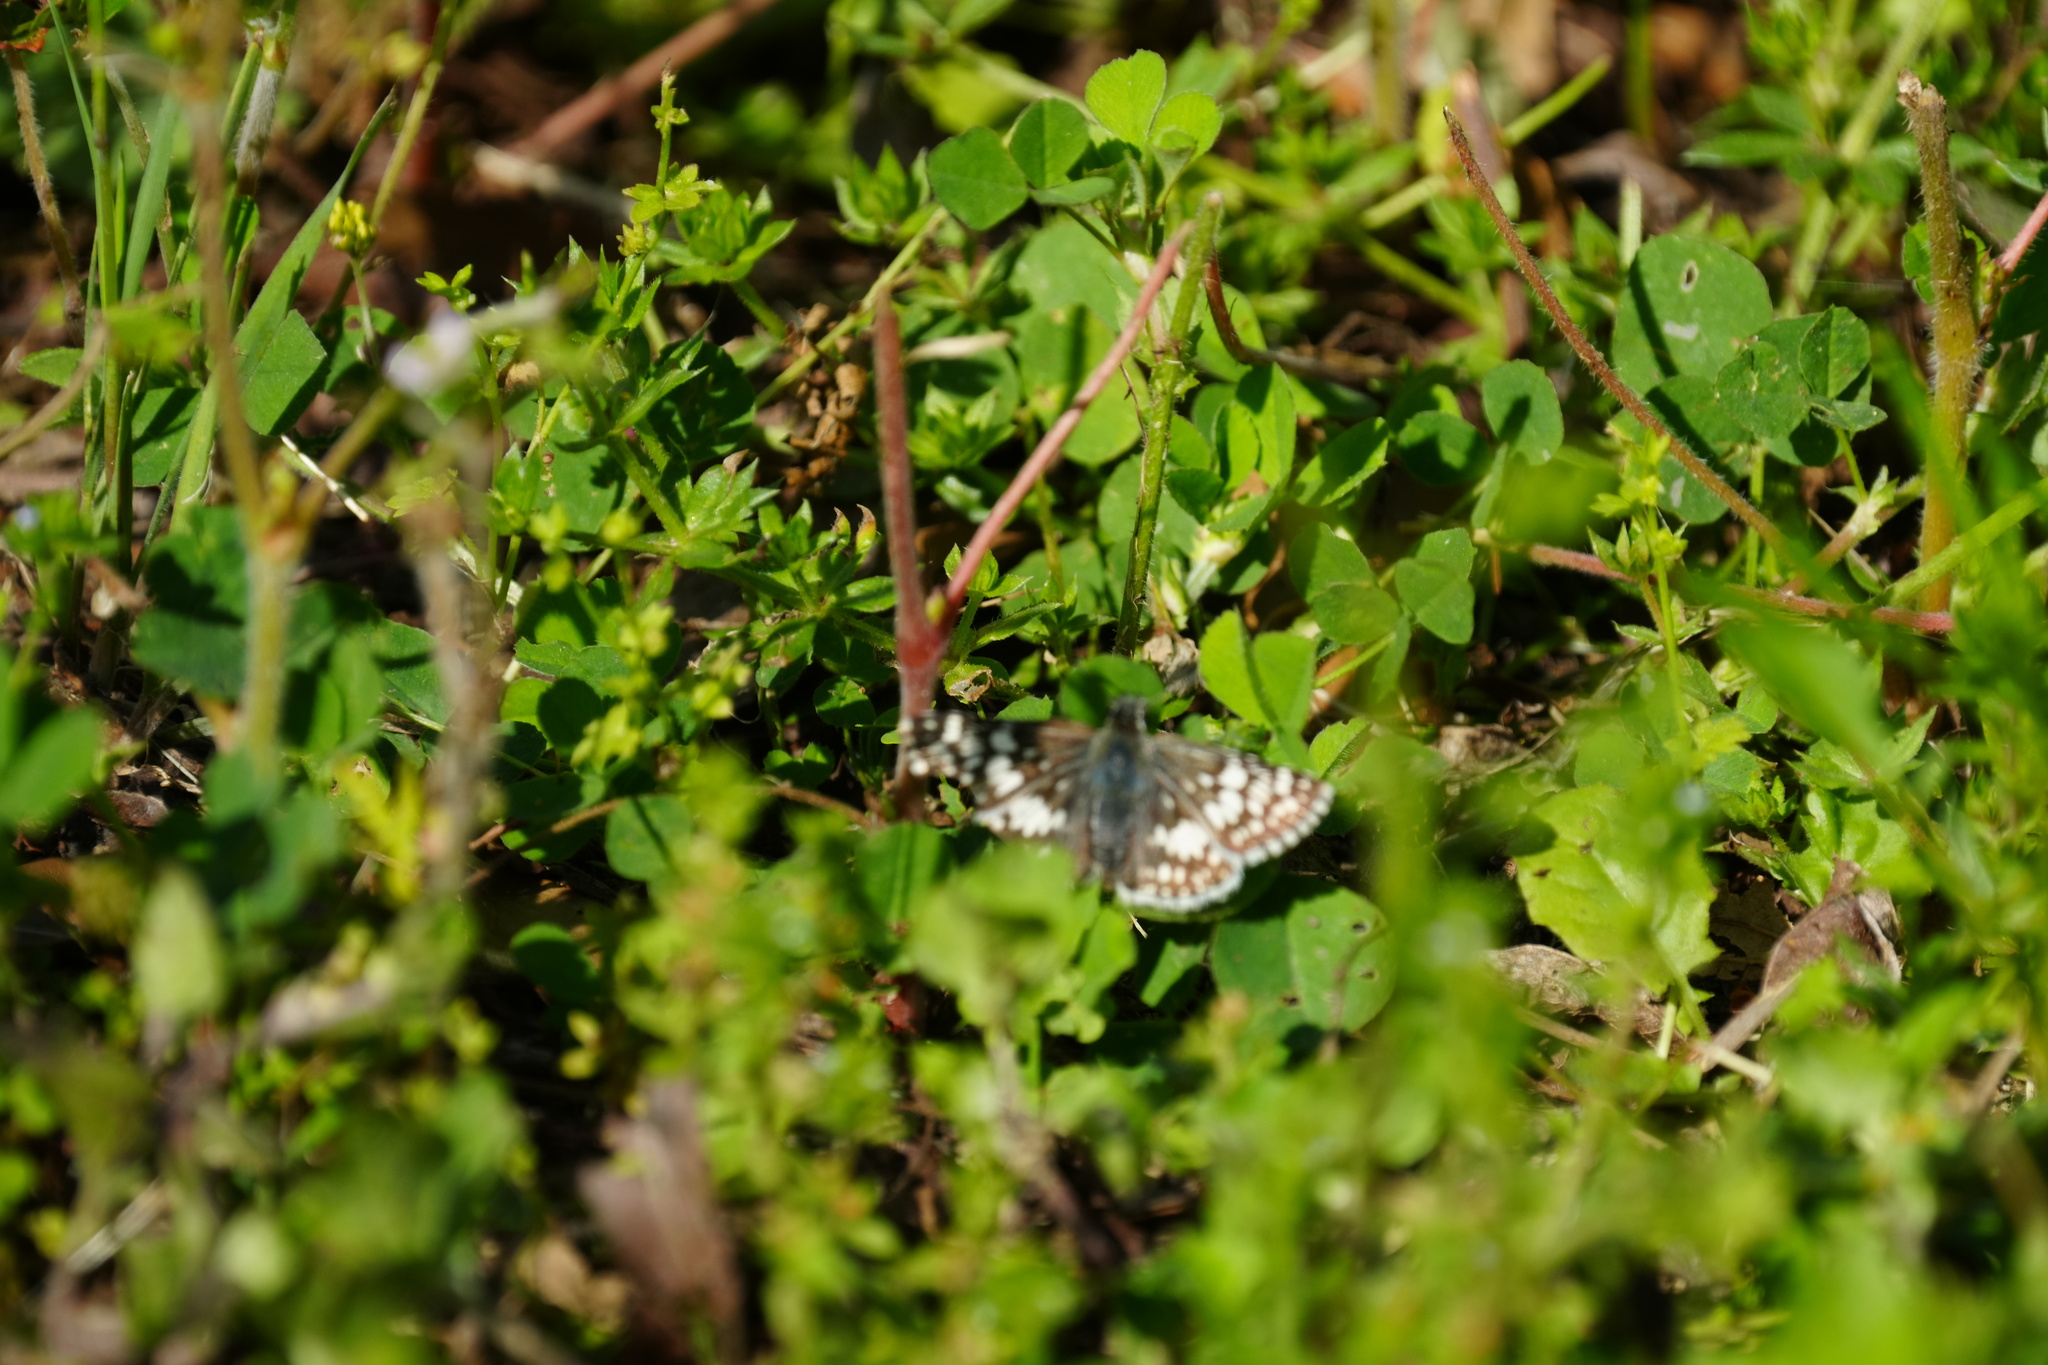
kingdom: Animalia
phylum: Arthropoda
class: Insecta
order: Lepidoptera
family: Hesperiidae
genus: Burnsius
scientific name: Burnsius albezens
